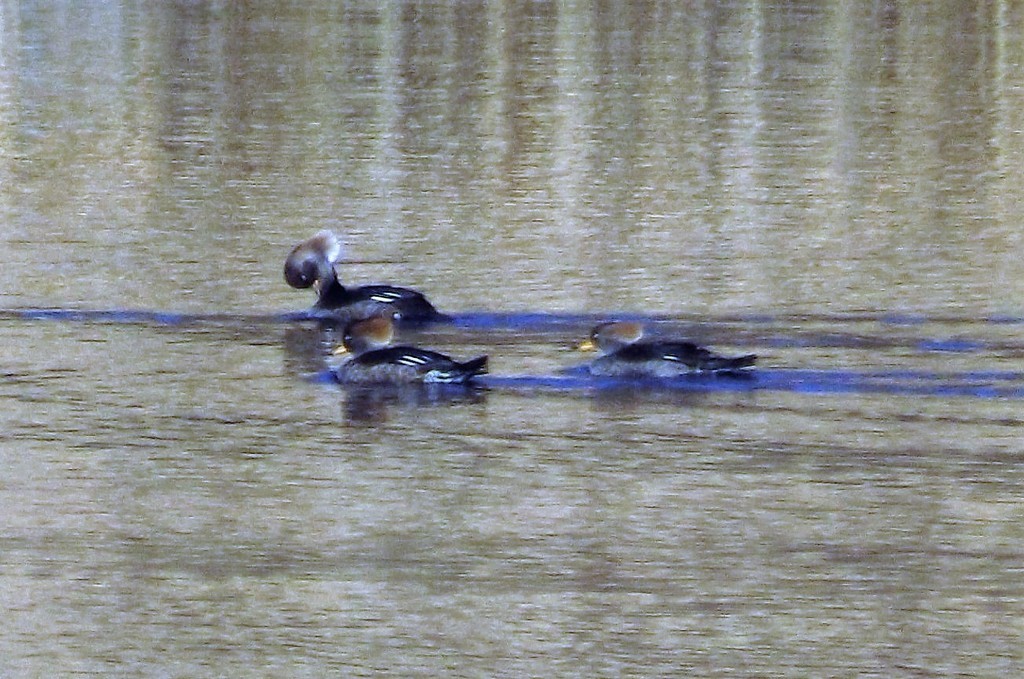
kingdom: Animalia
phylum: Chordata
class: Aves
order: Anseriformes
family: Anatidae
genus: Lophodytes
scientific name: Lophodytes cucullatus
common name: Hooded merganser
